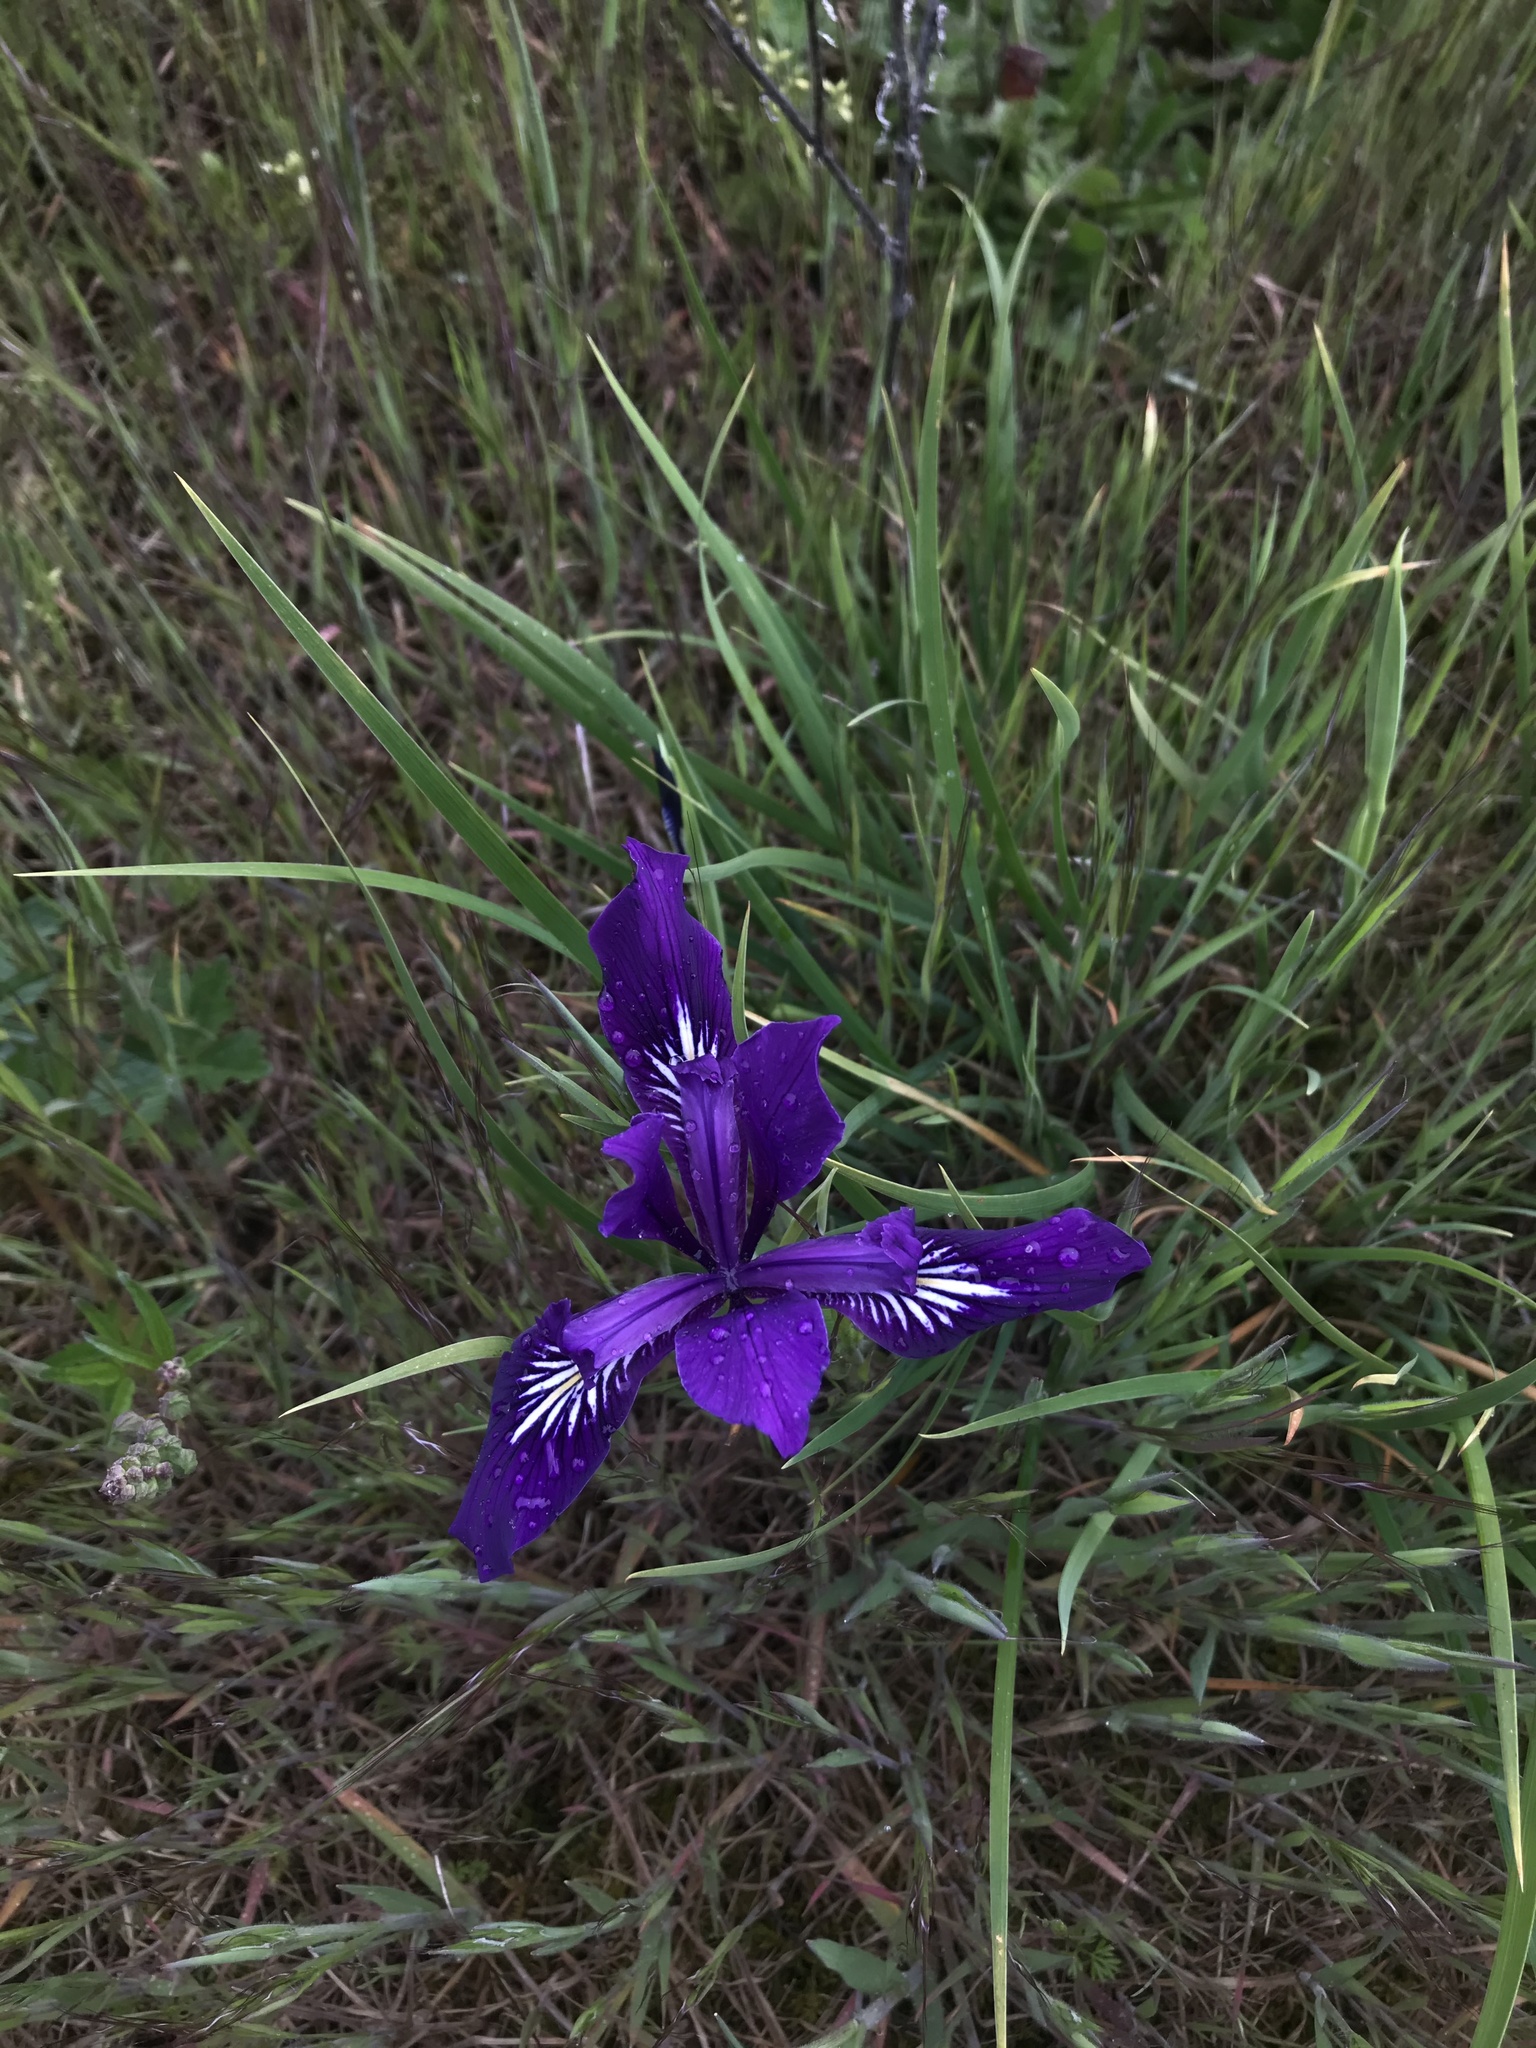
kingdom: Plantae
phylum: Tracheophyta
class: Liliopsida
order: Asparagales
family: Iridaceae
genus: Iris
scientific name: Iris tenax
